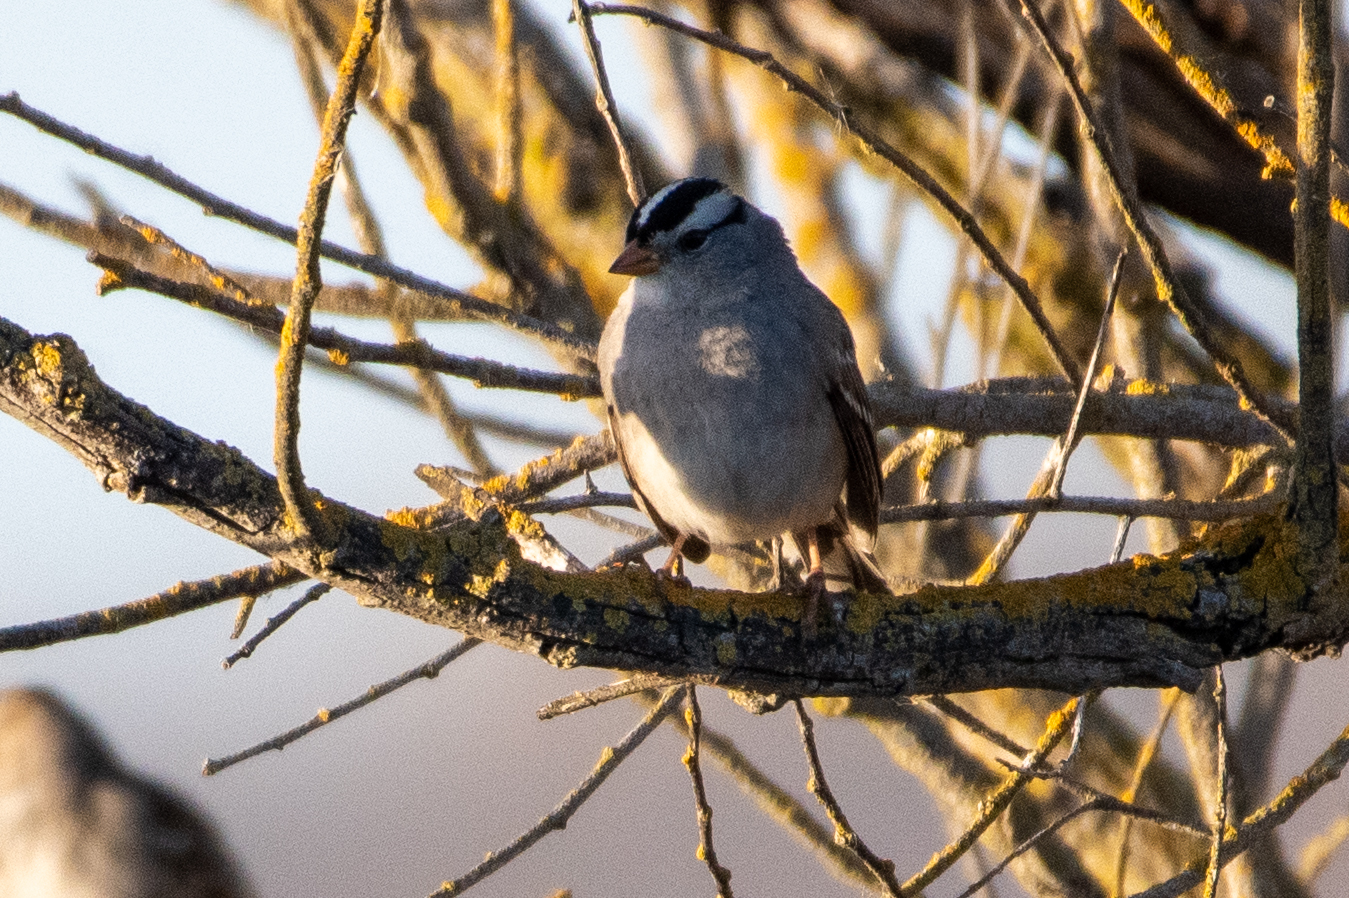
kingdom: Animalia
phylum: Chordata
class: Aves
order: Passeriformes
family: Passerellidae
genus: Zonotrichia
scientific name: Zonotrichia leucophrys
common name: White-crowned sparrow
